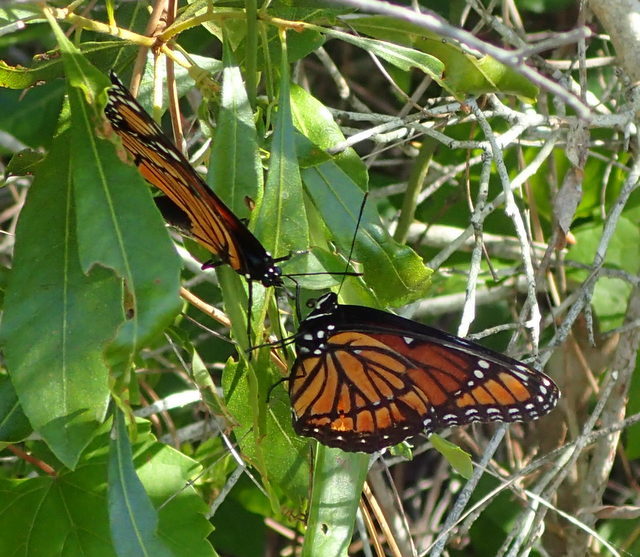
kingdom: Animalia
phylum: Arthropoda
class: Insecta
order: Lepidoptera
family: Nymphalidae
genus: Limenitis
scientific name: Limenitis archippus
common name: Viceroy
